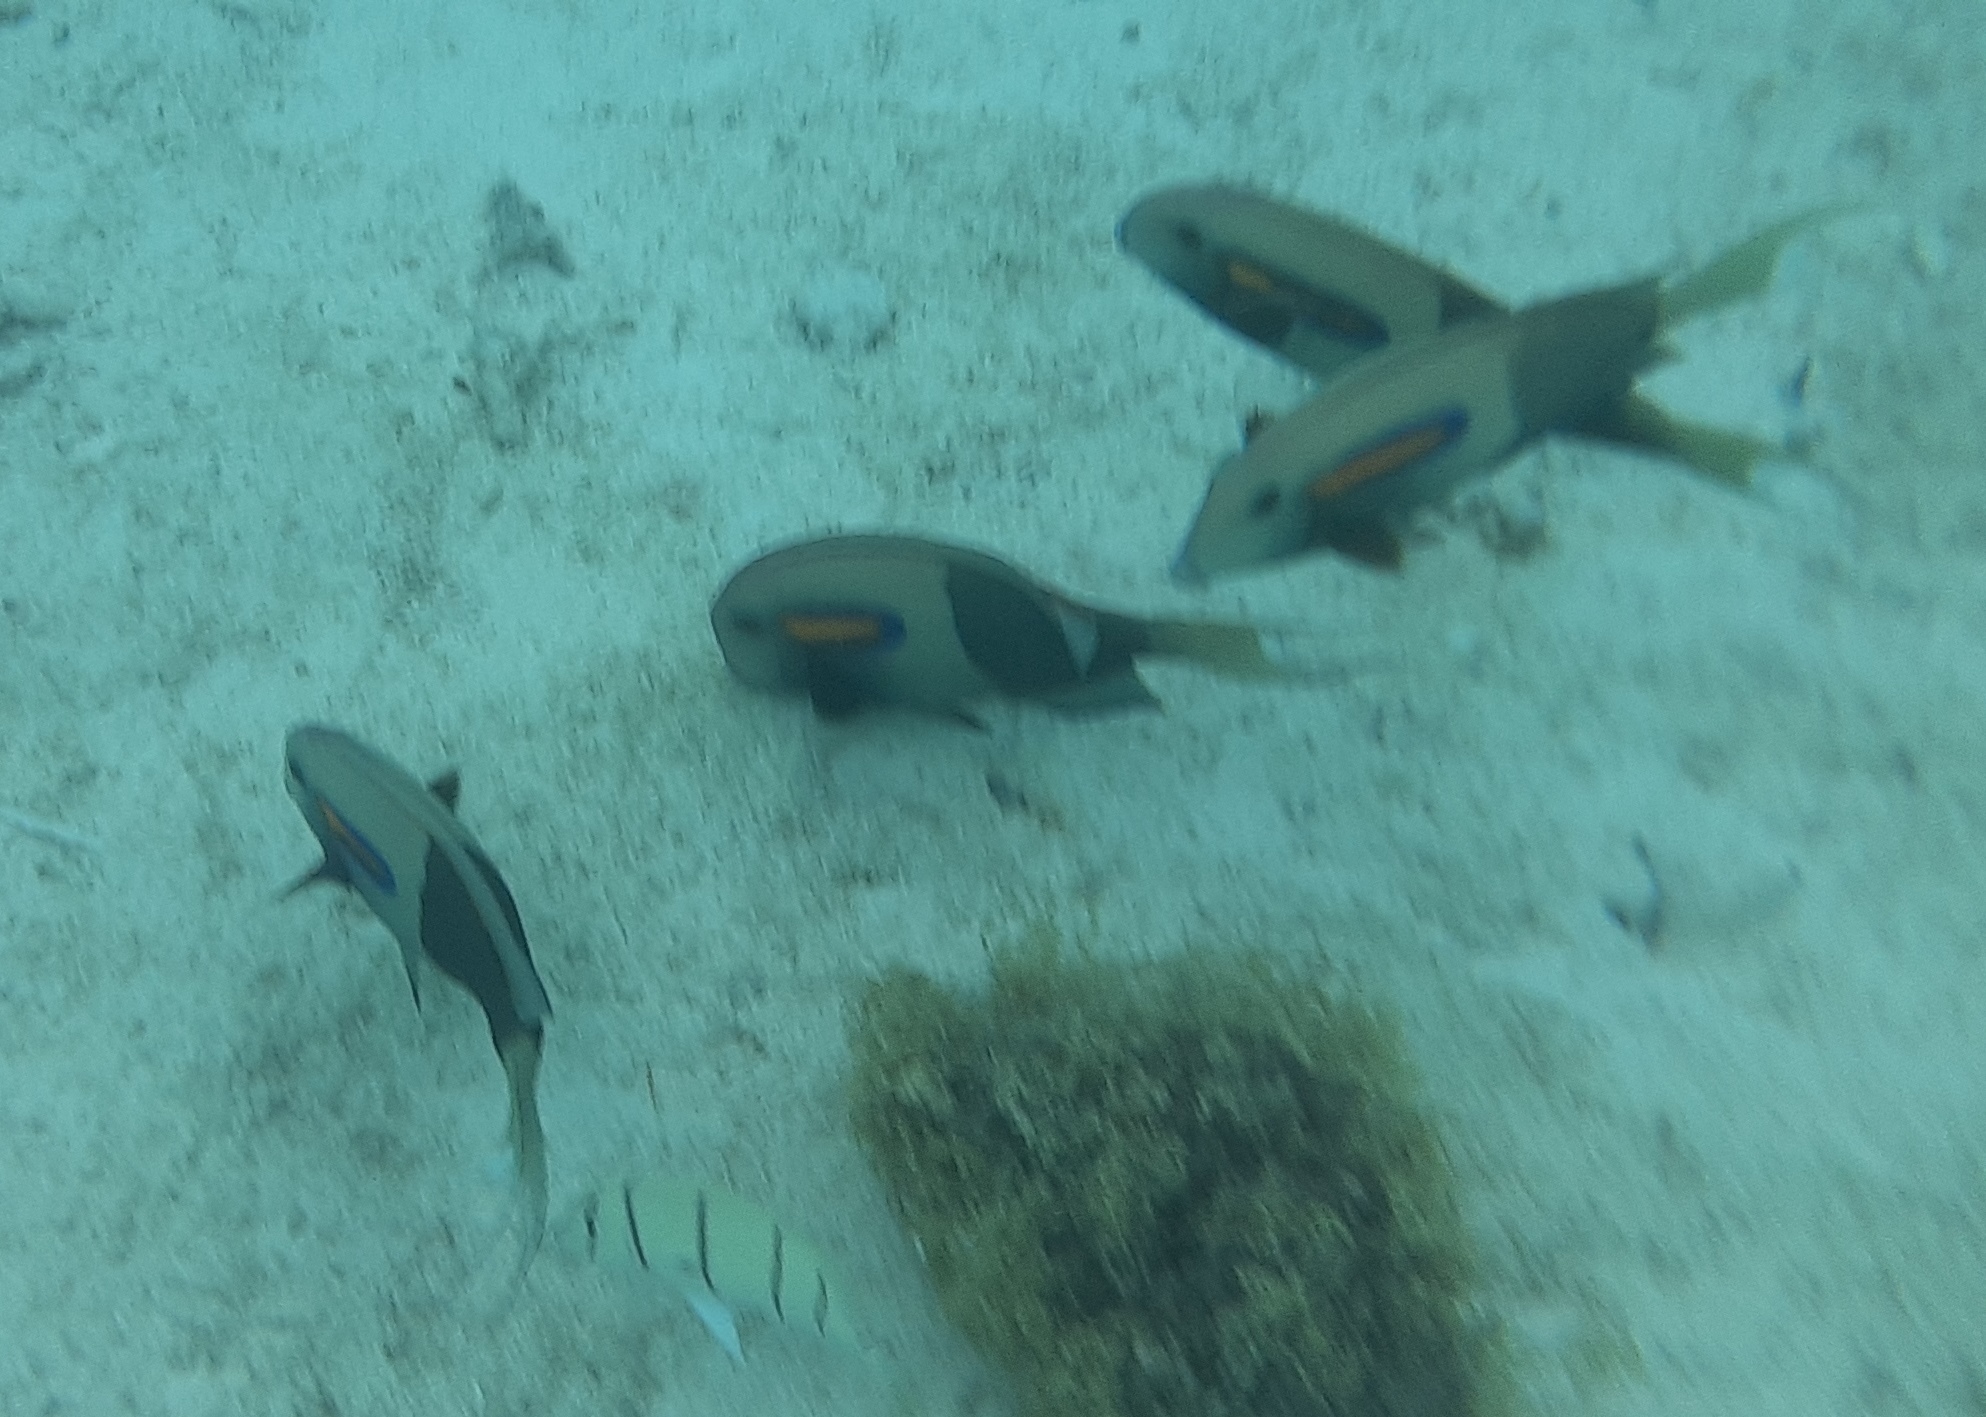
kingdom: Animalia
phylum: Chordata
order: Perciformes
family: Acanthuridae
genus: Acanthurus
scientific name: Acanthurus olivaceus
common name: Gendarme fish
